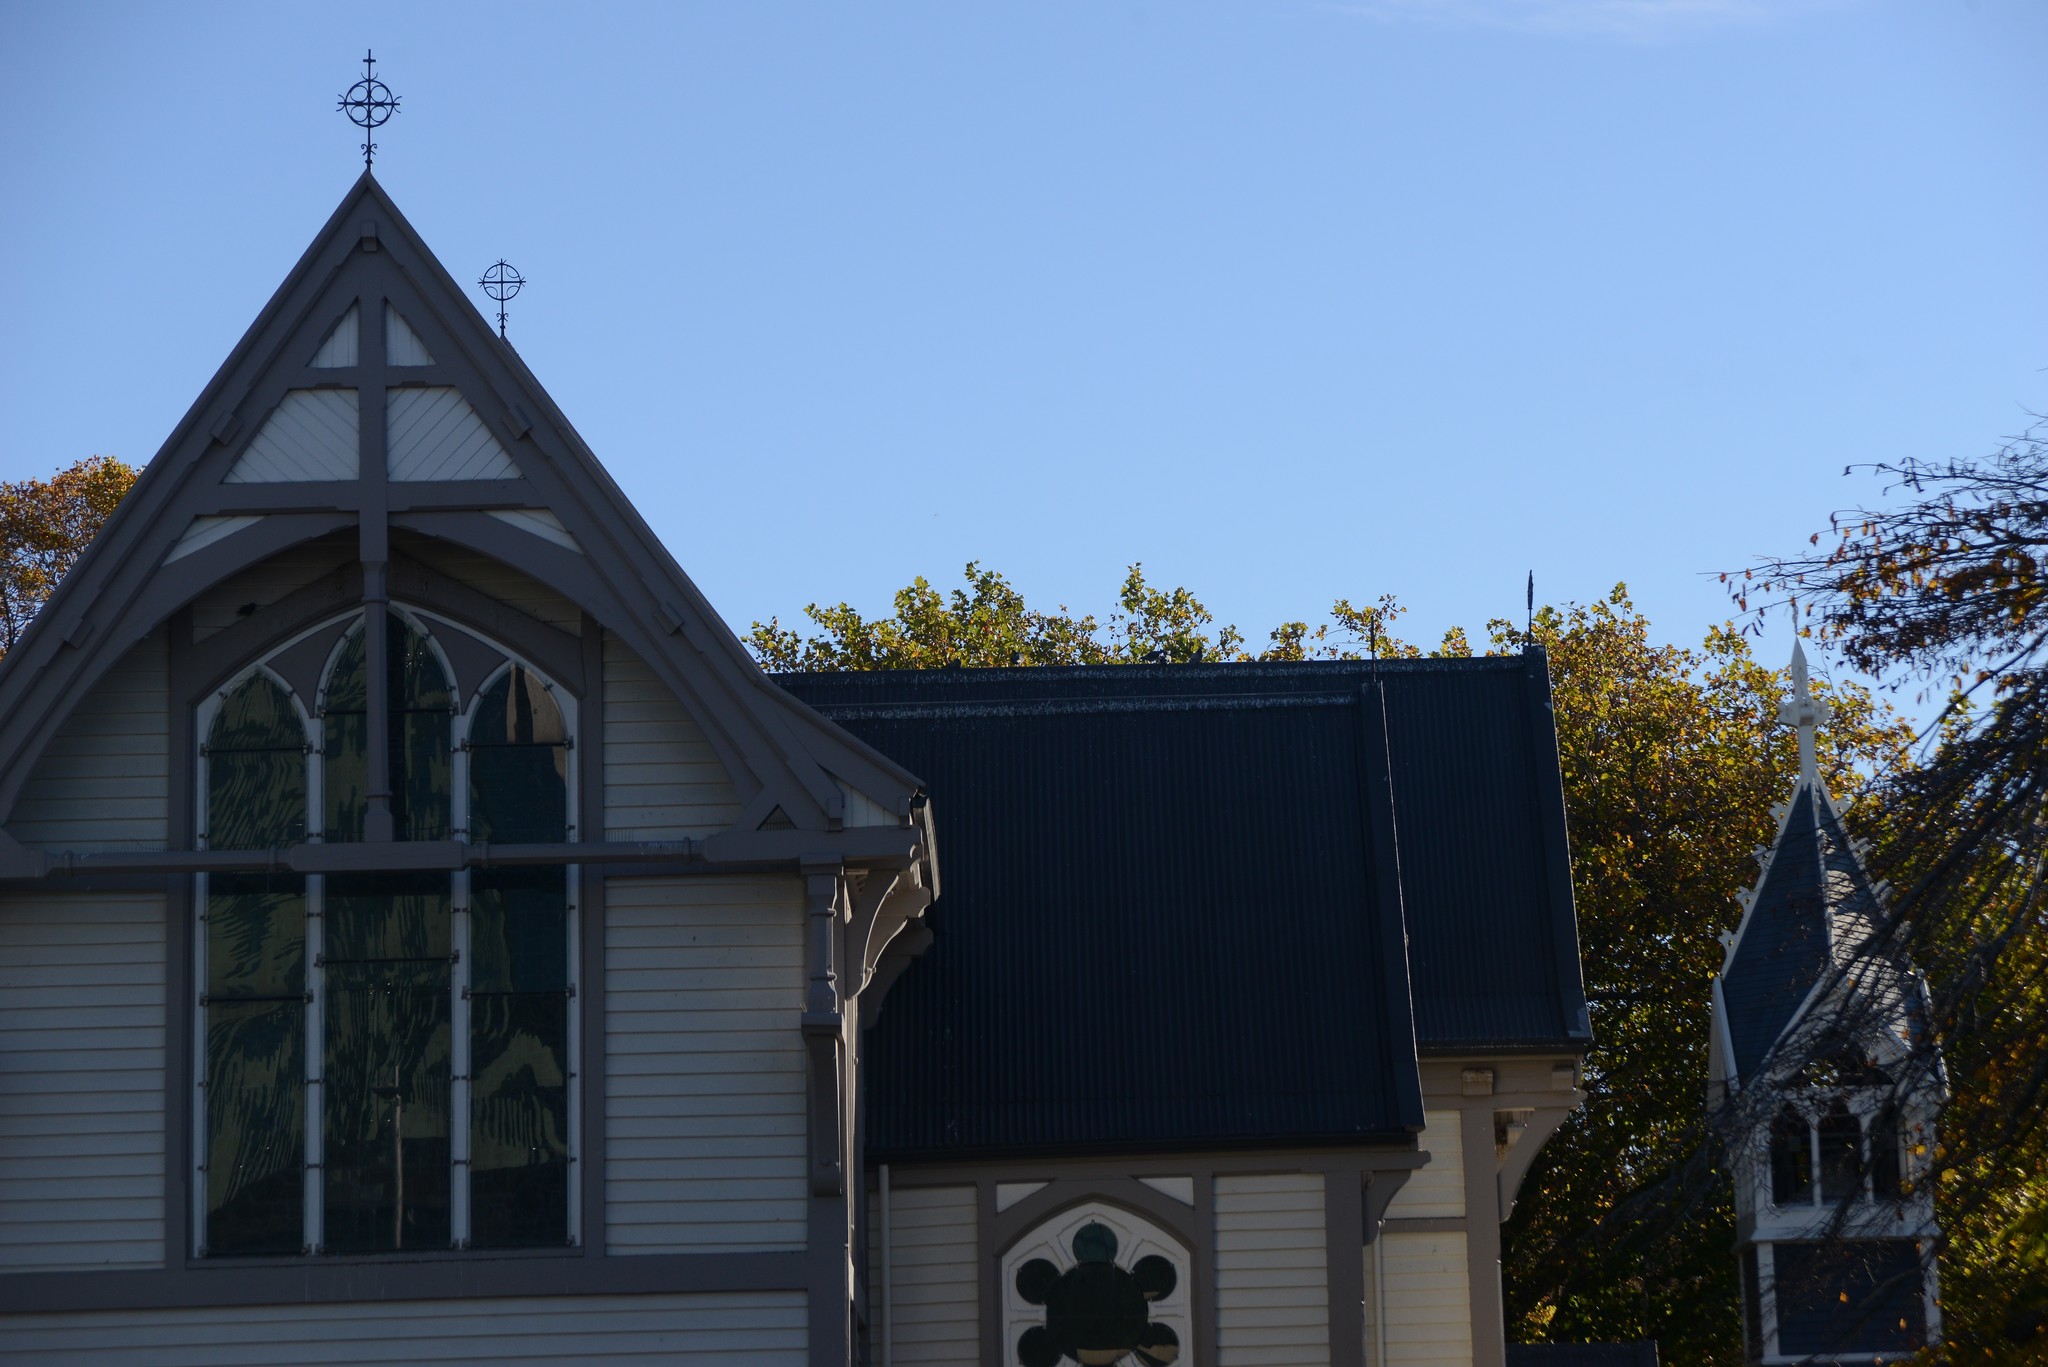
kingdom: Animalia
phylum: Chordata
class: Aves
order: Columbiformes
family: Columbidae
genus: Columba
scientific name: Columba livia
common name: Rock pigeon
